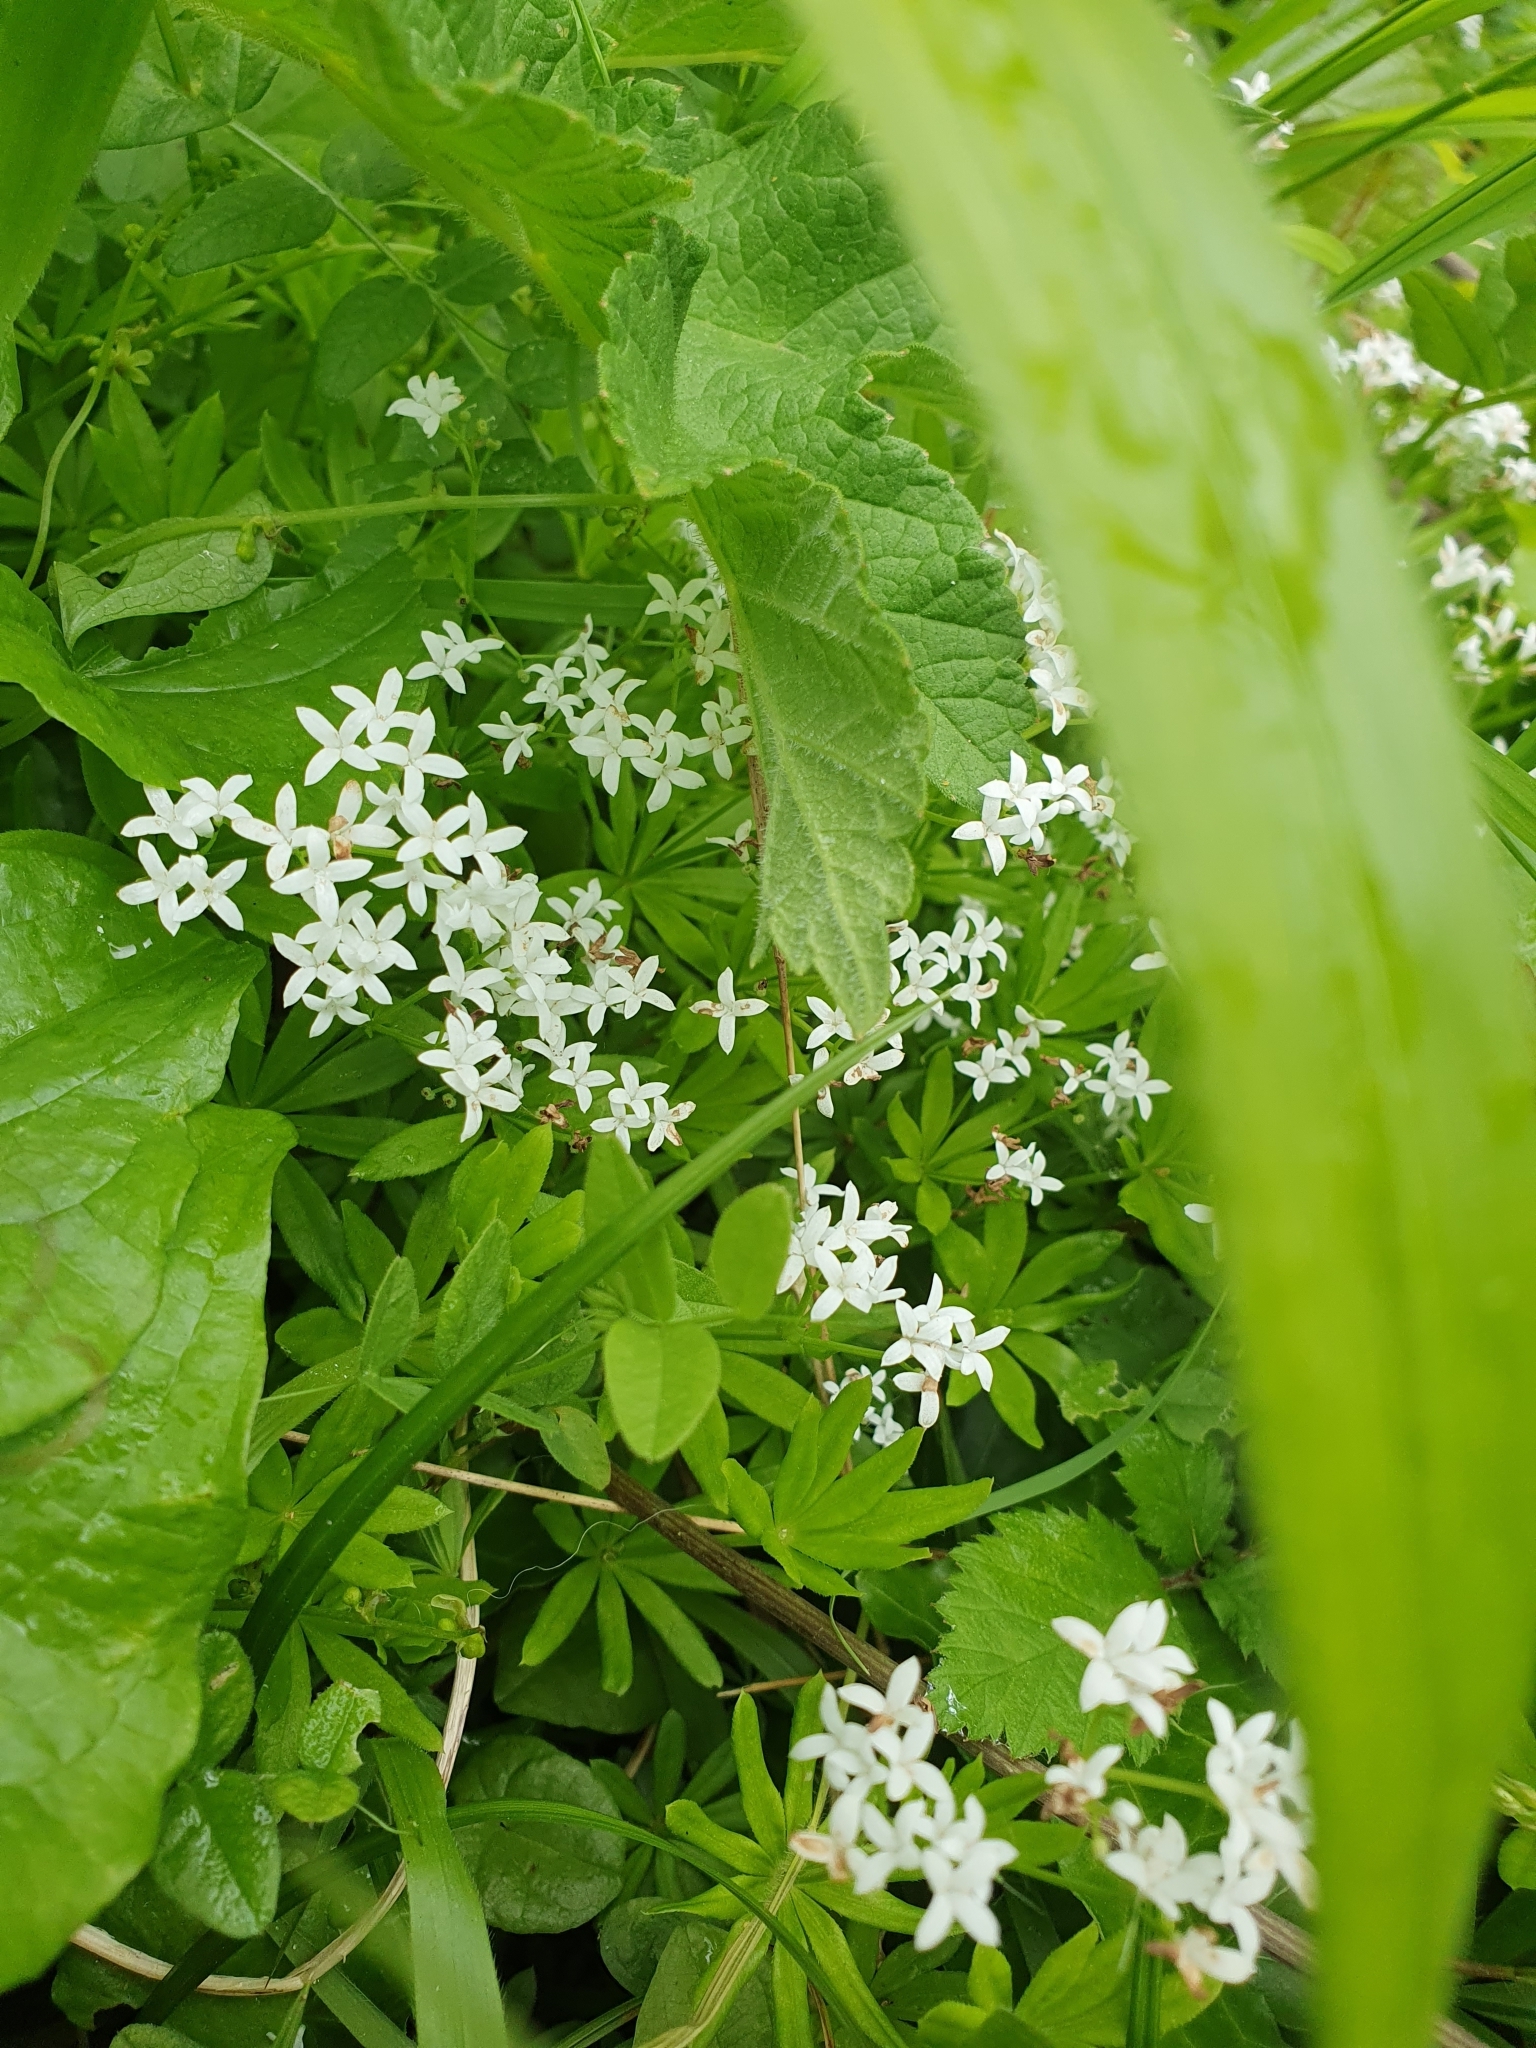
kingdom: Plantae
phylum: Tracheophyta
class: Magnoliopsida
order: Gentianales
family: Rubiaceae
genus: Galium
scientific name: Galium odoratum
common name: Sweet woodruff
